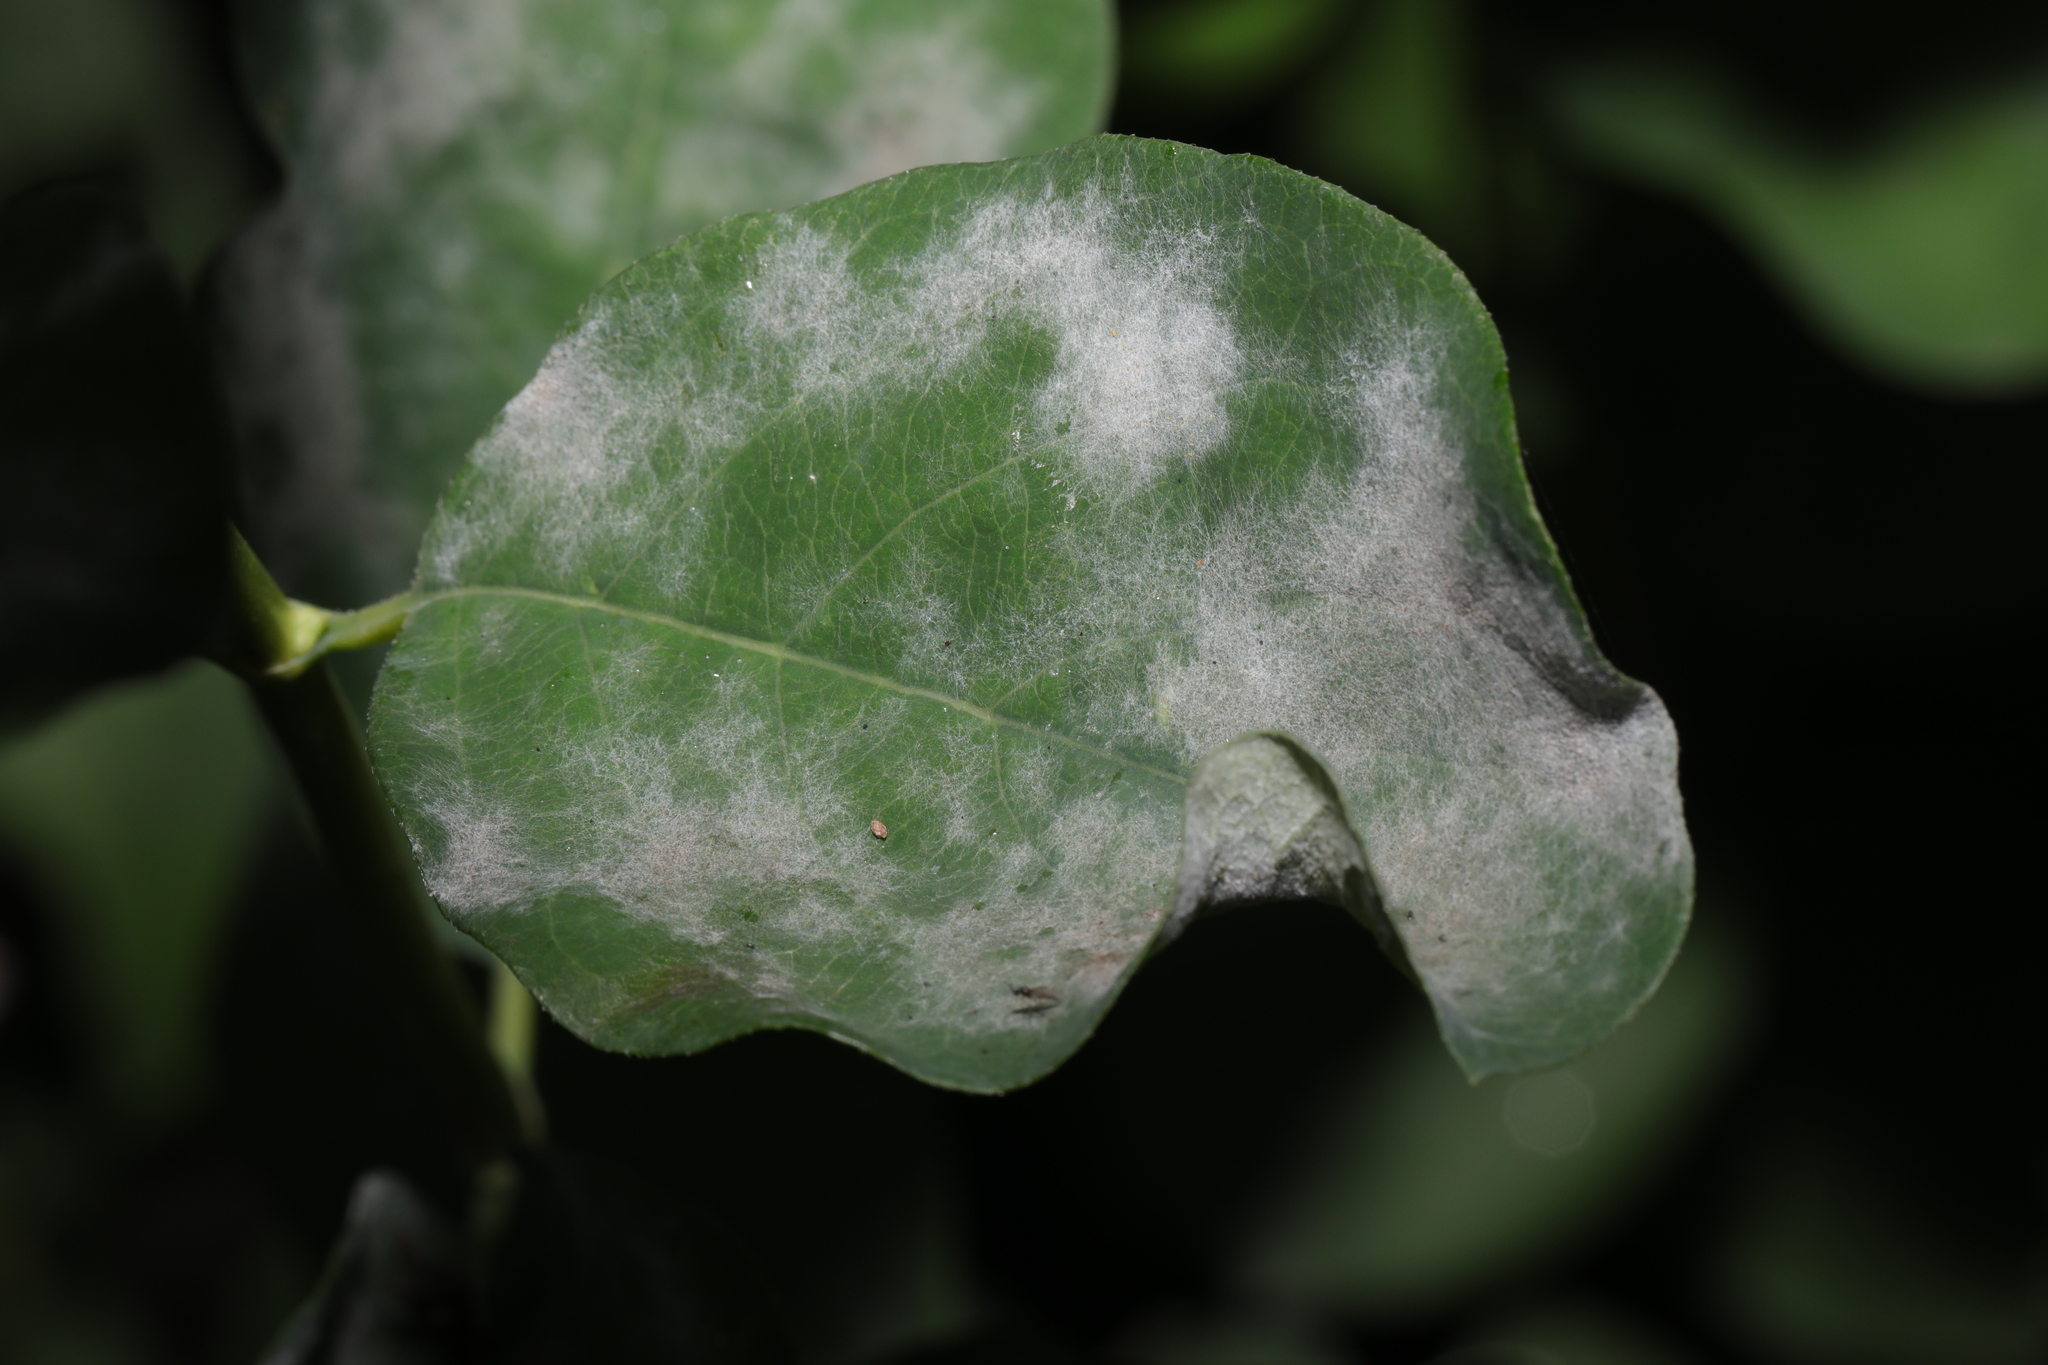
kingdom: Fungi
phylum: Ascomycota
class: Leotiomycetes
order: Helotiales
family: Erysiphaceae
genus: Erysiphe
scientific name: Erysiphe symphoricarpi
